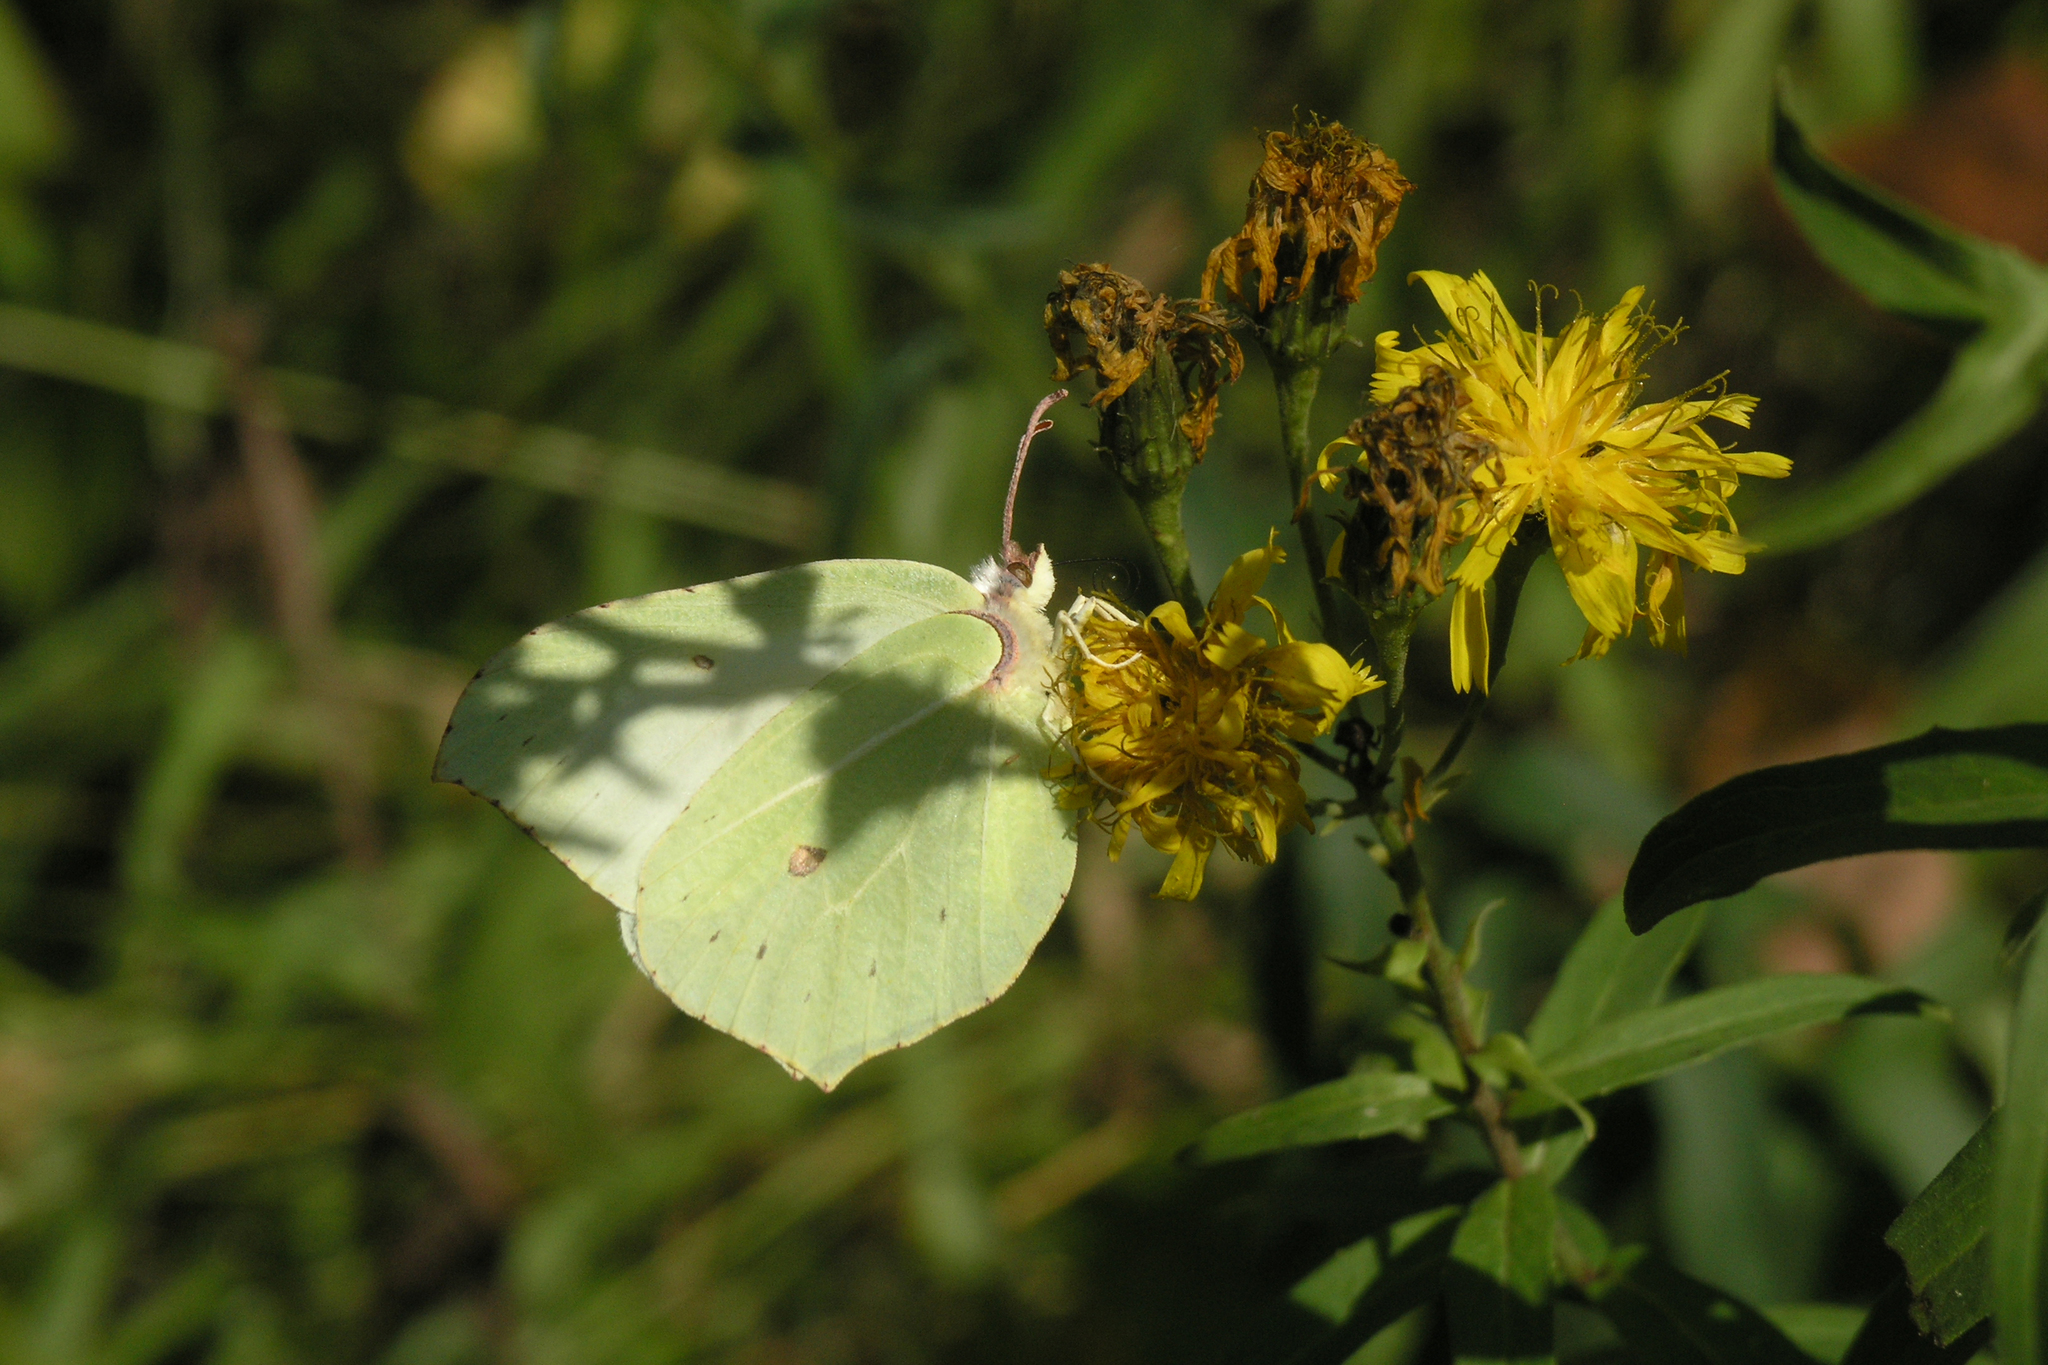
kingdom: Animalia
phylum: Arthropoda
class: Insecta
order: Lepidoptera
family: Pieridae
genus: Gonepteryx
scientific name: Gonepteryx rhamni
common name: Brimstone
